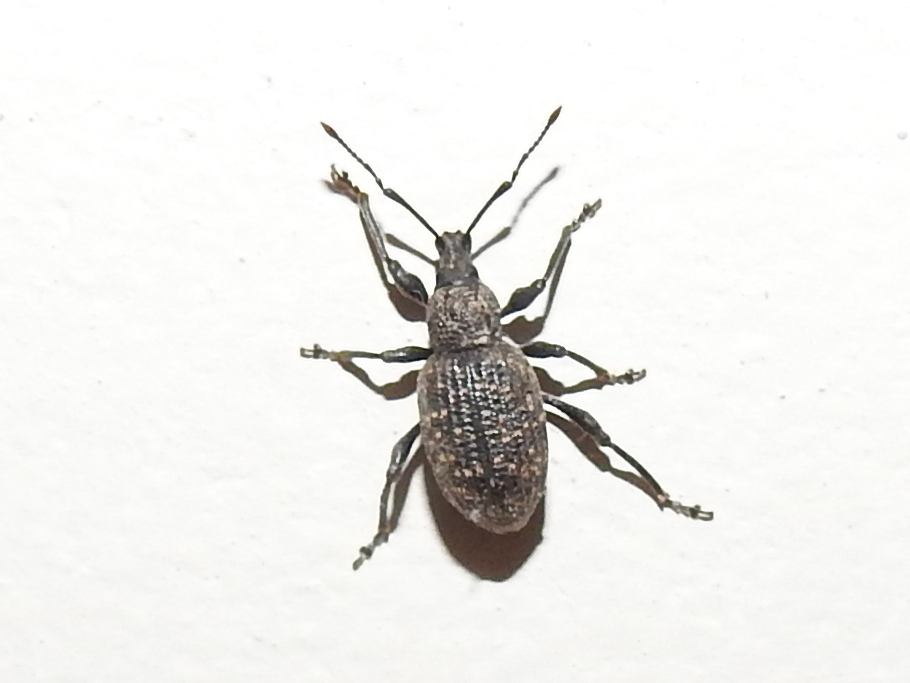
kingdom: Animalia
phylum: Arthropoda
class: Insecta
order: Coleoptera
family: Curculionidae
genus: Otiorhynchus
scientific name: Otiorhynchus sulcatus
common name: Black vine weevil
